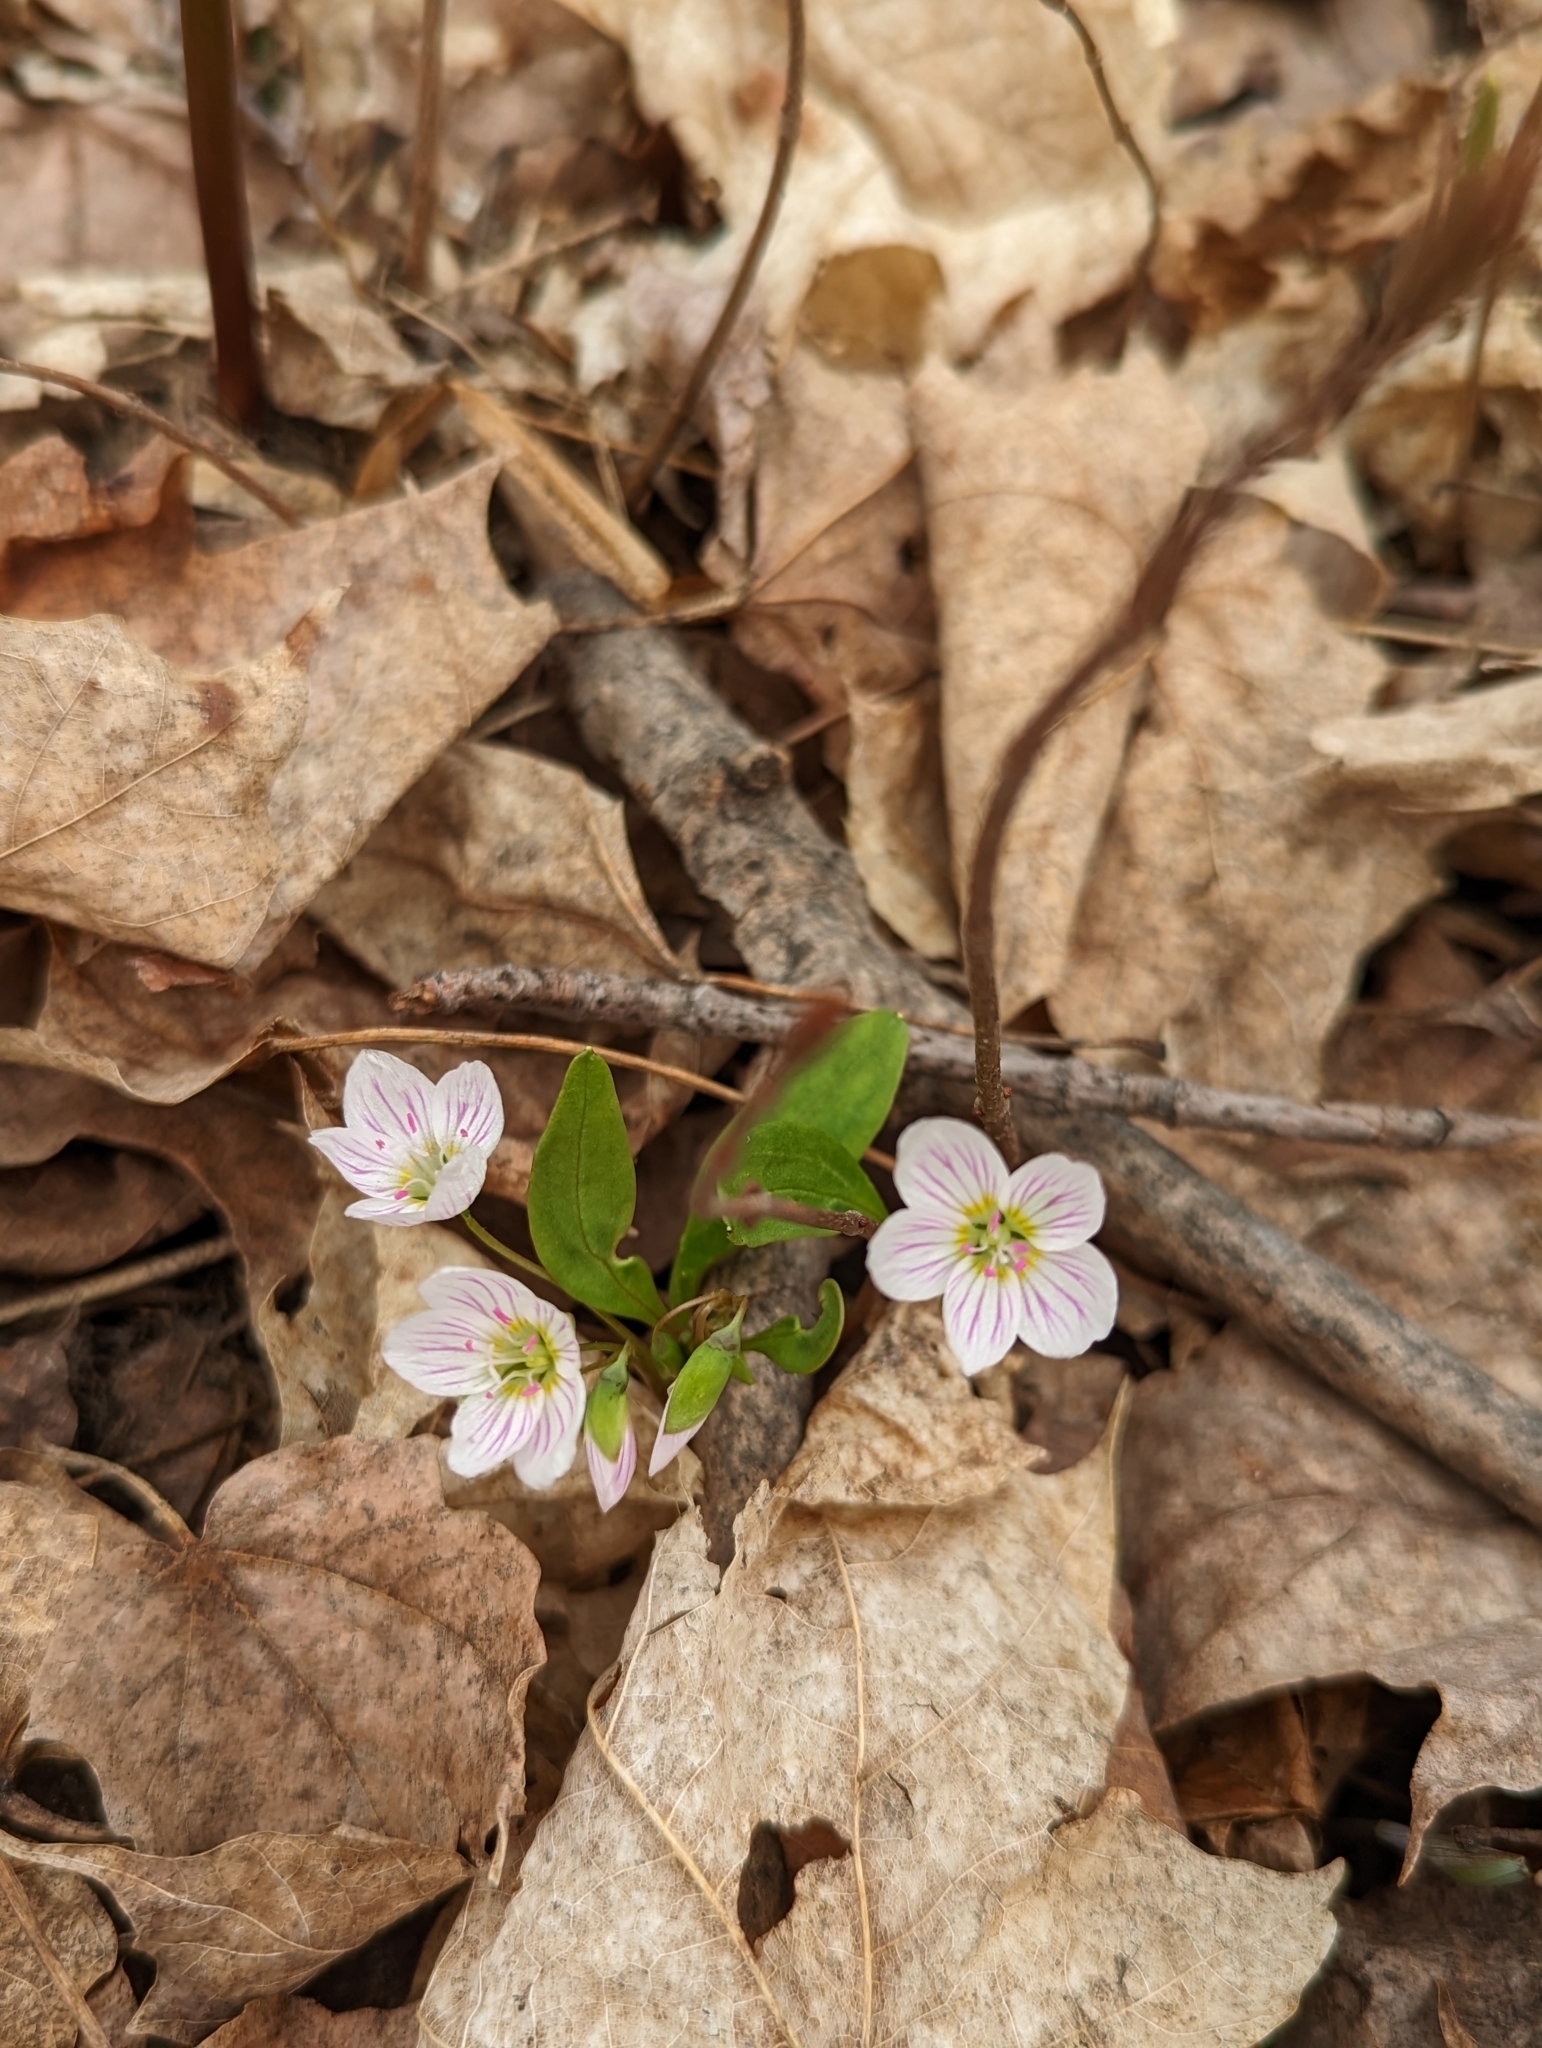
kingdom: Plantae
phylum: Tracheophyta
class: Magnoliopsida
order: Caryophyllales
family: Montiaceae
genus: Claytonia
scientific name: Claytonia caroliniana
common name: Carolina spring beauty
